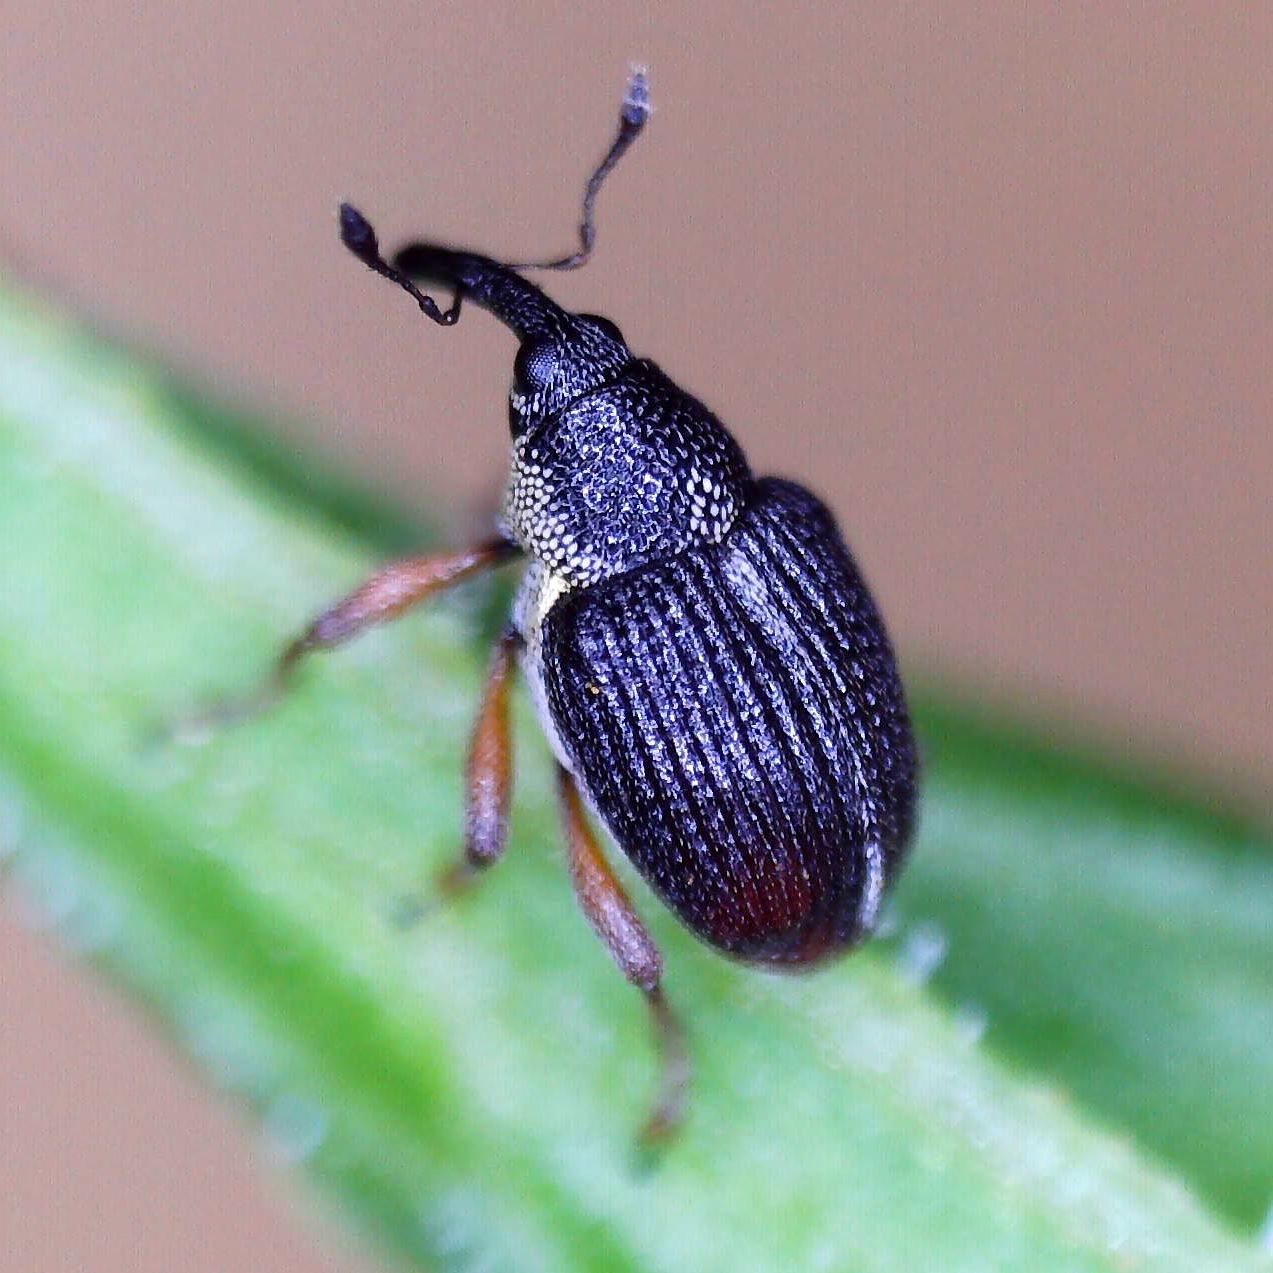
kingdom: Animalia
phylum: Arthropoda
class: Insecta
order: Coleoptera
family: Curculionidae
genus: Amalus
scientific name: Amalus scortillum
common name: Weevil
